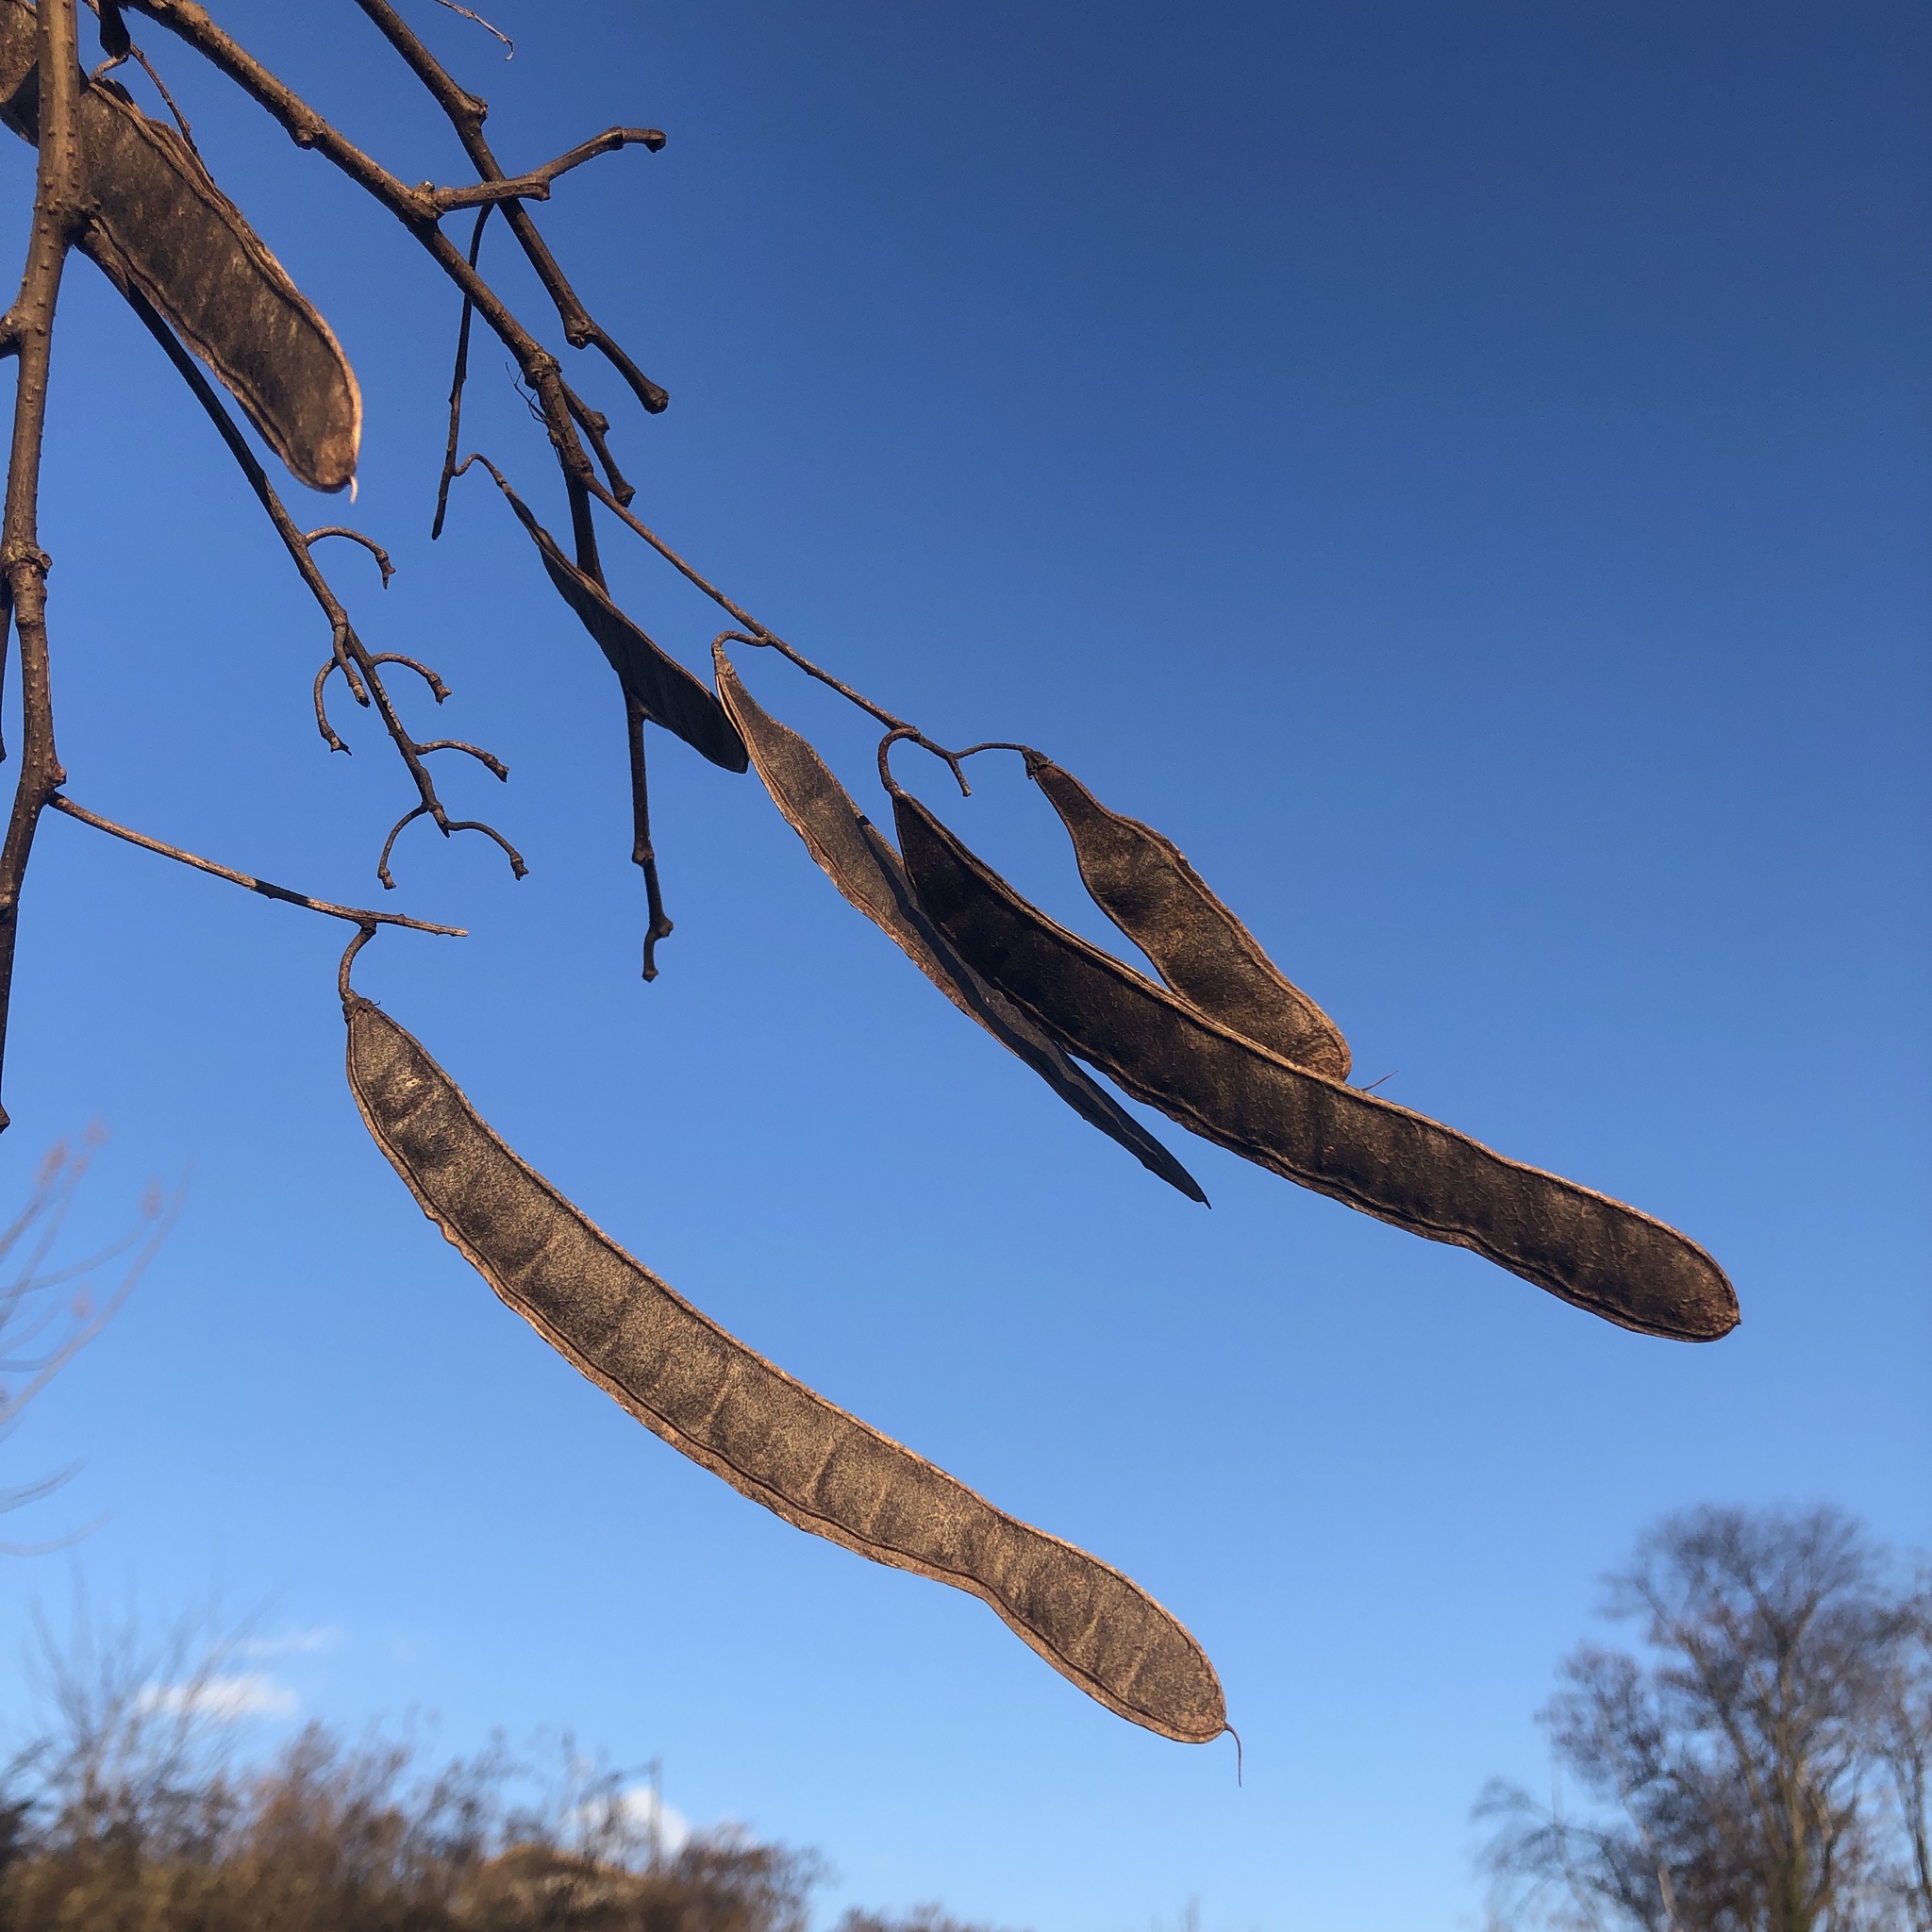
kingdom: Plantae
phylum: Tracheophyta
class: Magnoliopsida
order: Fabales
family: Fabaceae
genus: Robinia
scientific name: Robinia pseudoacacia
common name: Black locust
